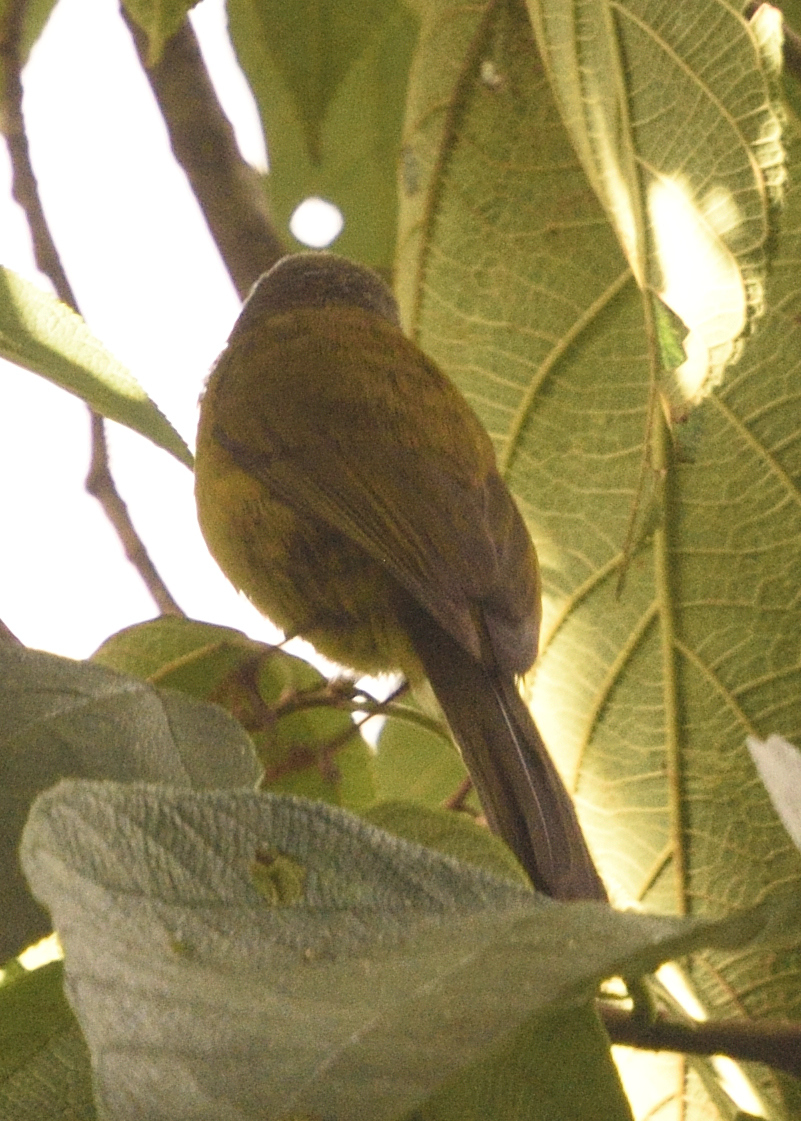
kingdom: Animalia
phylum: Chordata
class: Aves
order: Passeriformes
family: Thraupidae
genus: Cnemoscopus
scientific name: Cnemoscopus rubrirostris
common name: Grey-hooded bush tanager
